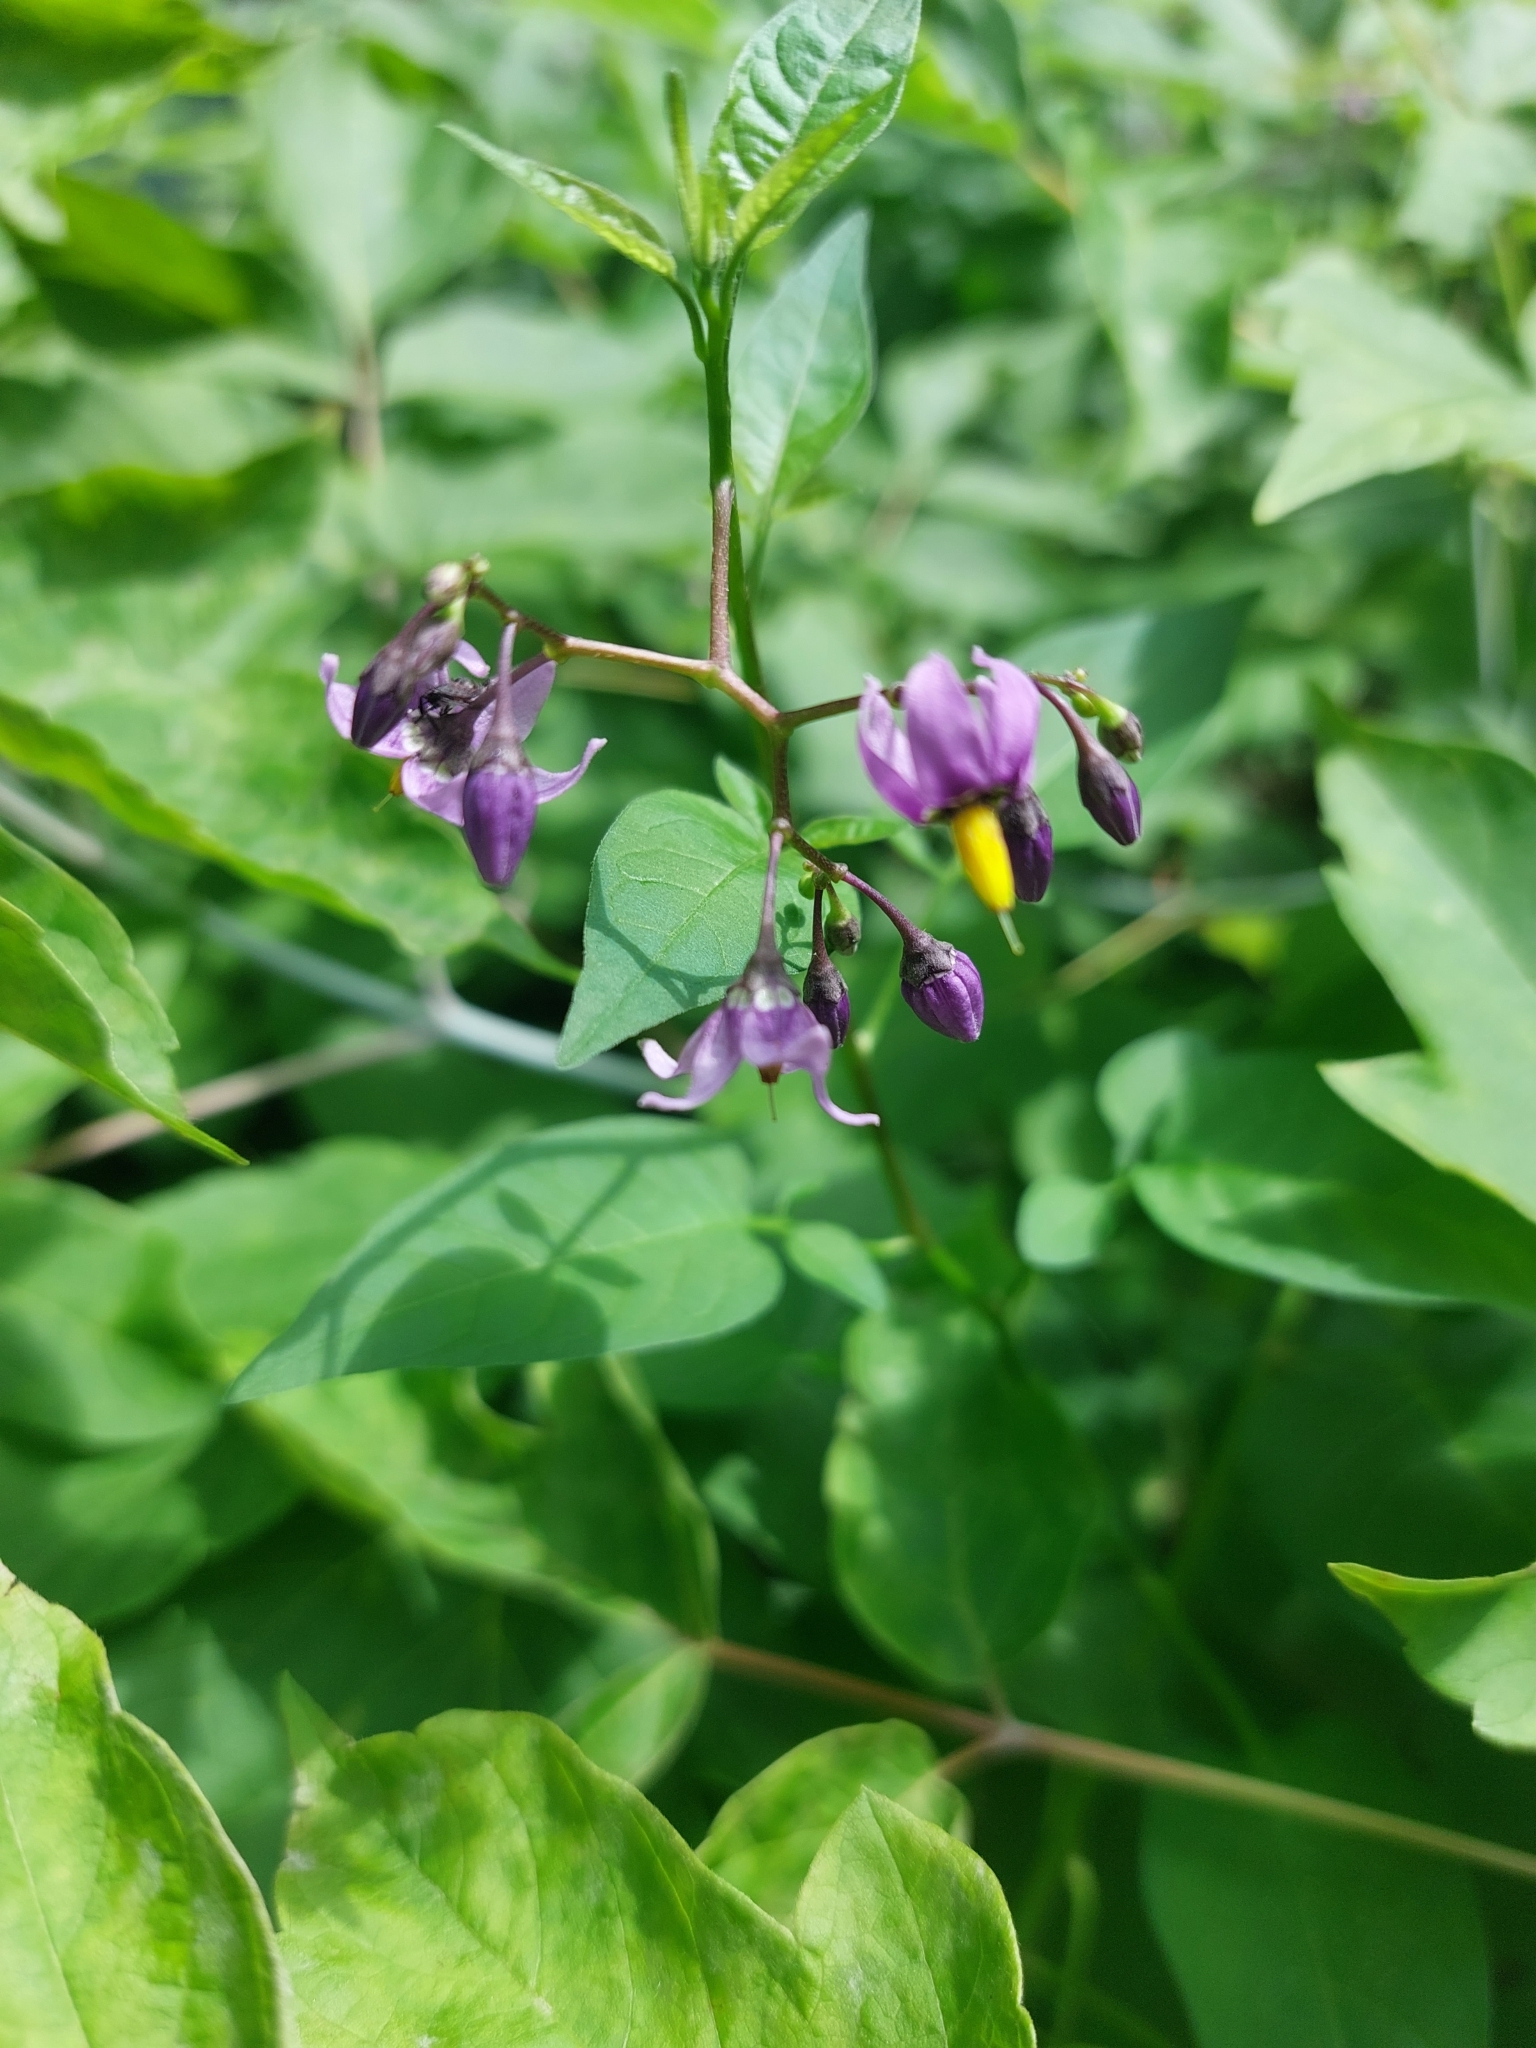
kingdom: Plantae
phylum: Tracheophyta
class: Magnoliopsida
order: Solanales
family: Solanaceae
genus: Solanum
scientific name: Solanum dulcamara
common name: Climbing nightshade
